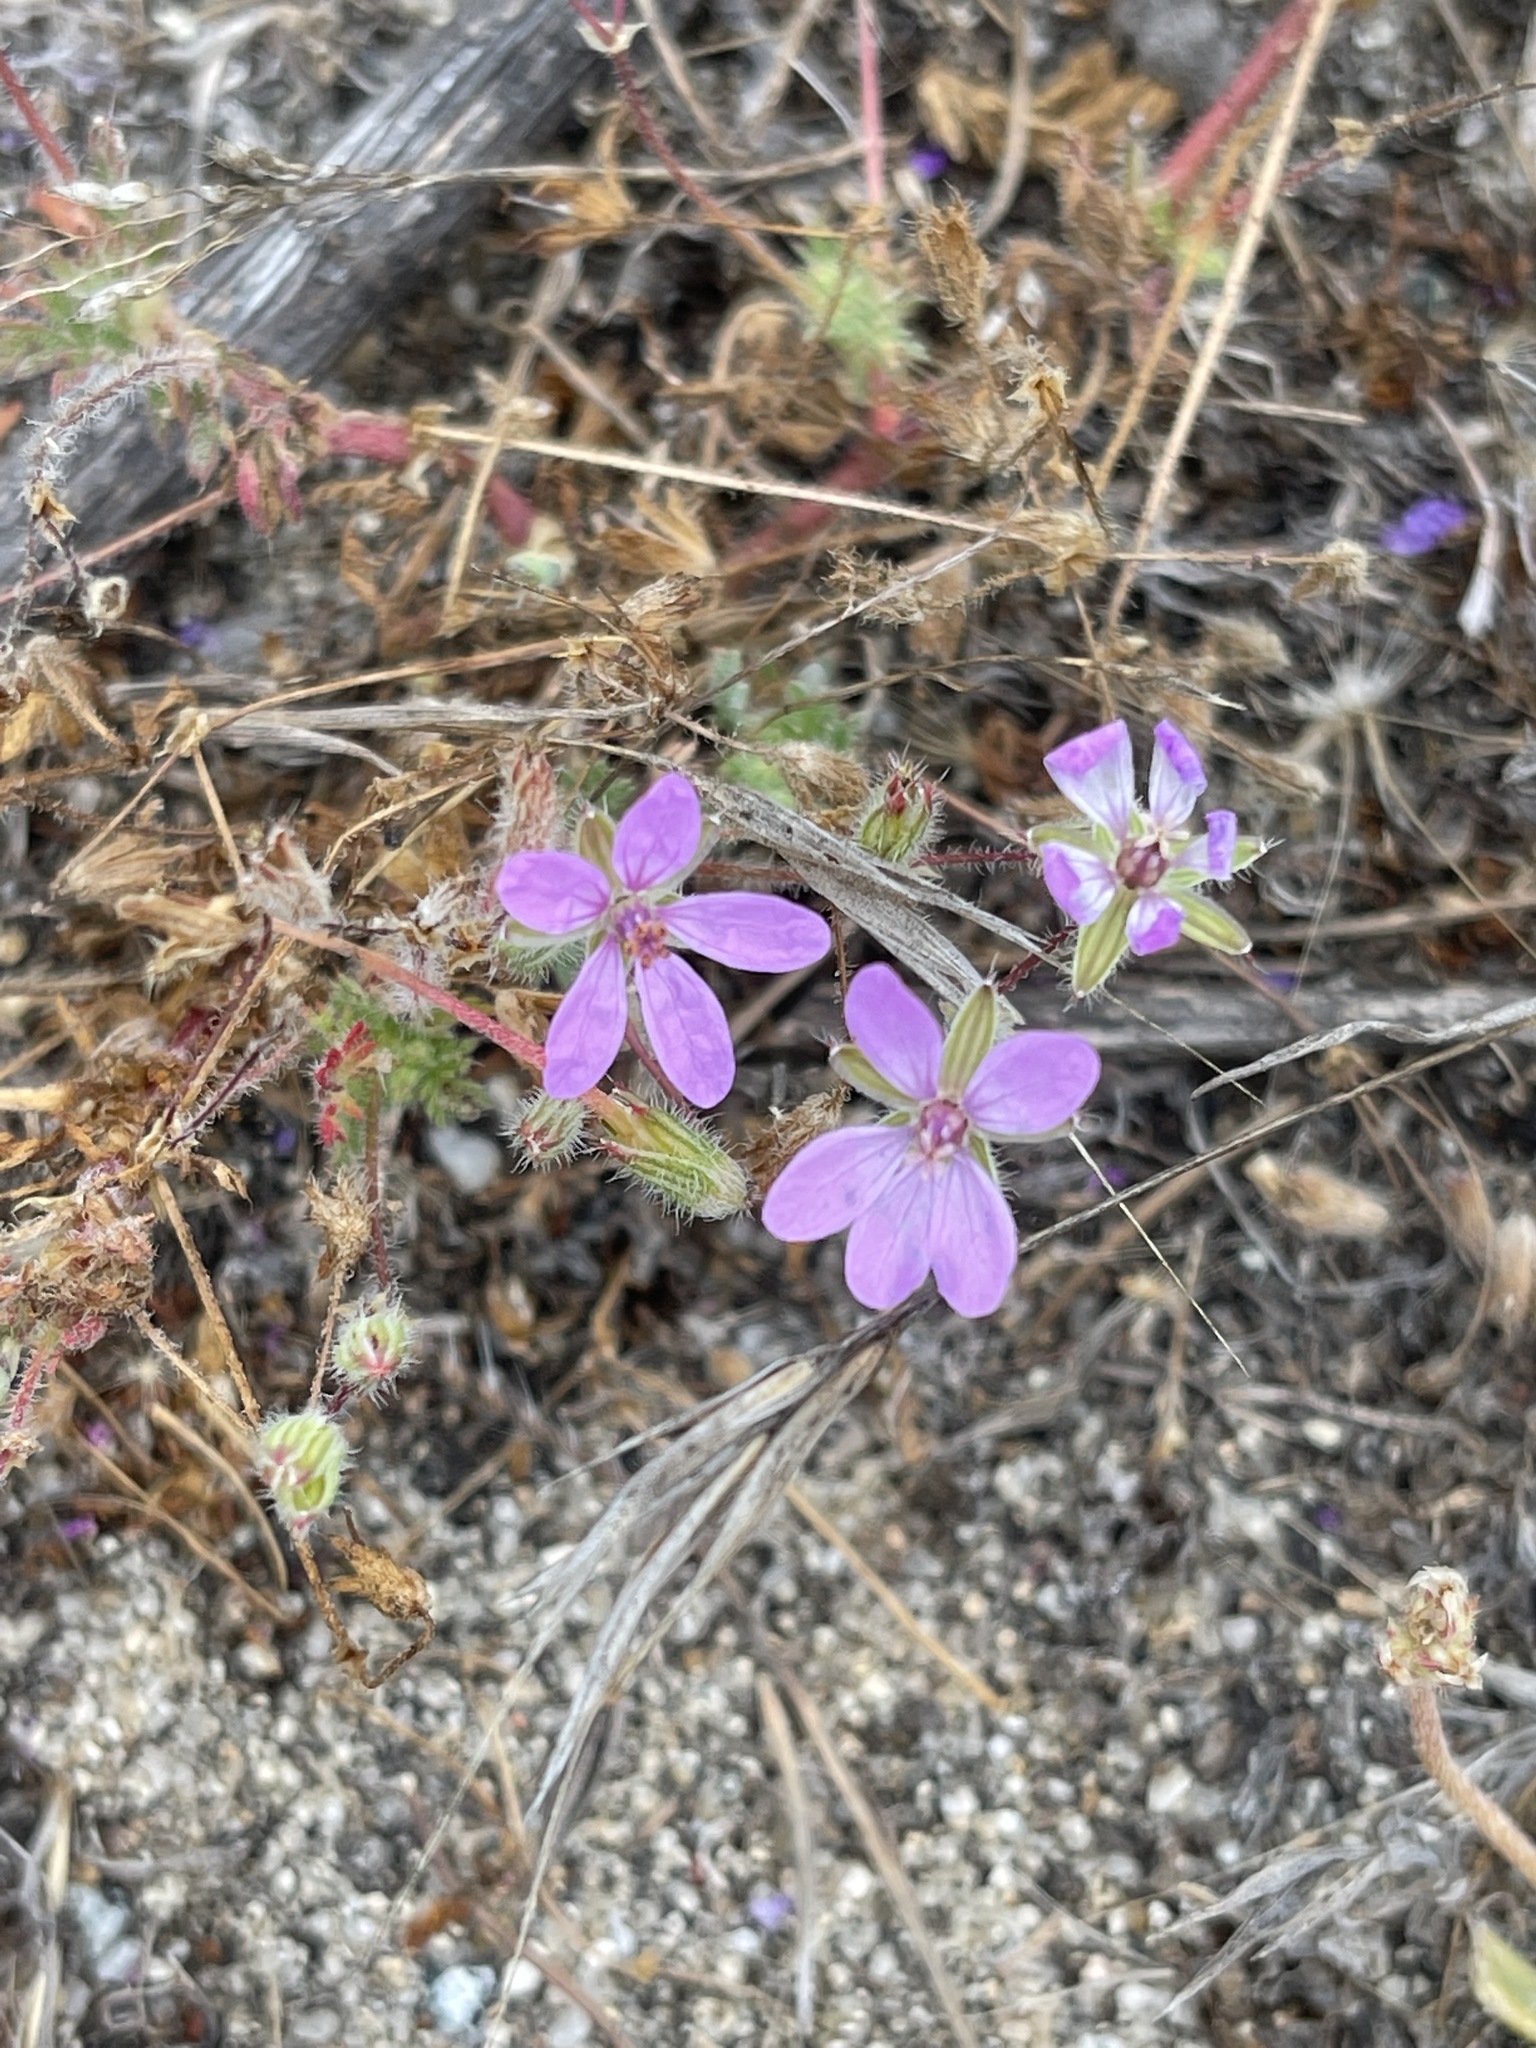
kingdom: Plantae
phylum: Tracheophyta
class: Magnoliopsida
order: Geraniales
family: Geraniaceae
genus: Erodium
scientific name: Erodium cicutarium
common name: Common stork's-bill
